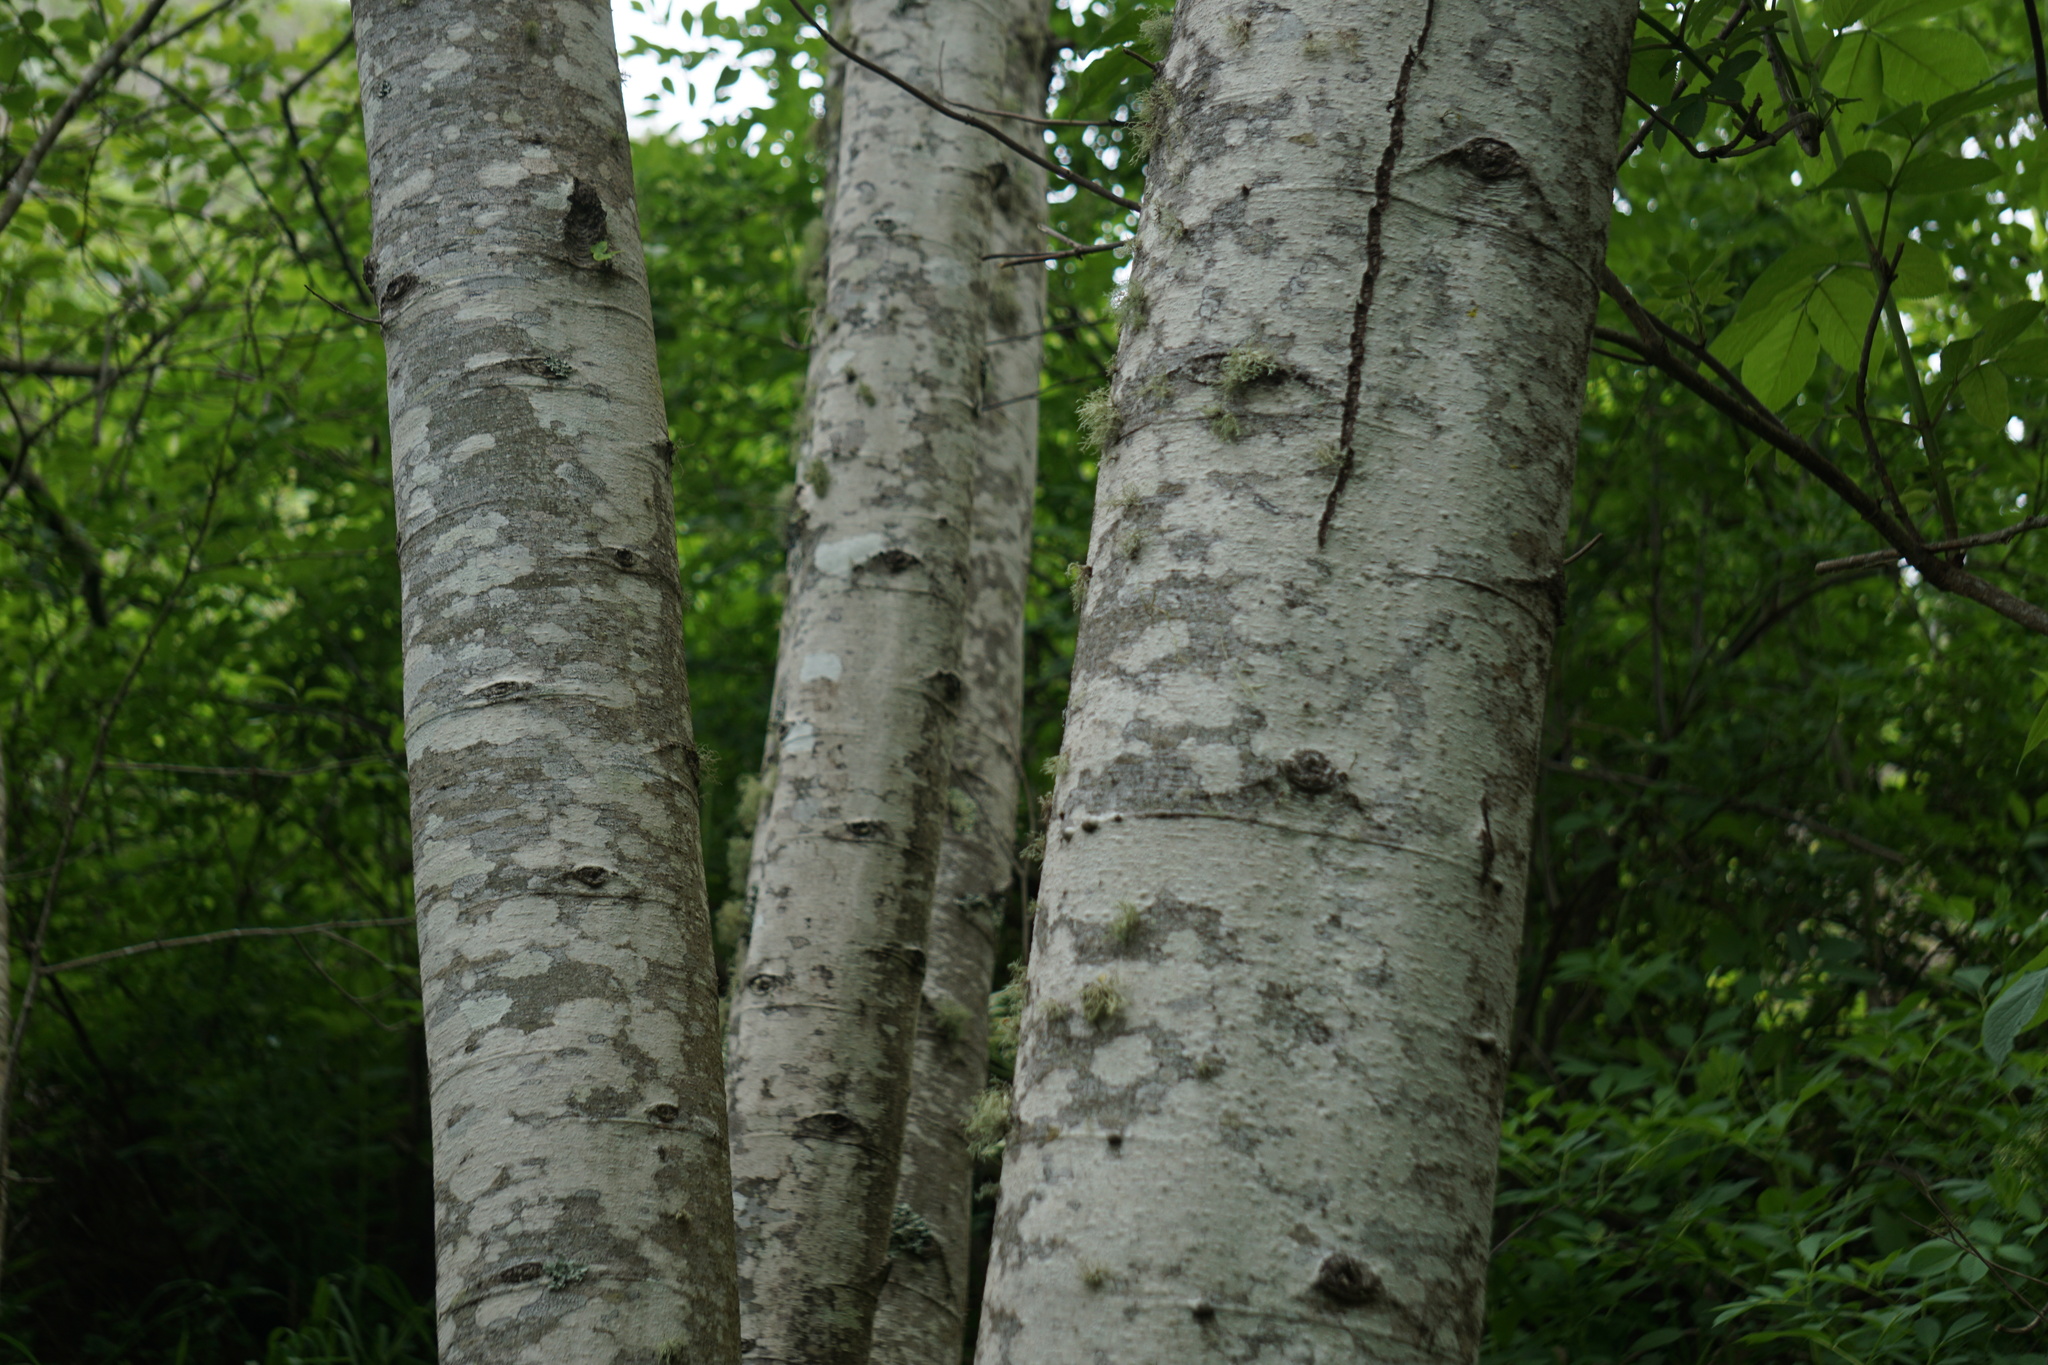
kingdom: Plantae
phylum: Tracheophyta
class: Magnoliopsida
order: Fagales
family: Betulaceae
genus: Alnus
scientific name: Alnus rubra
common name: Red alder
